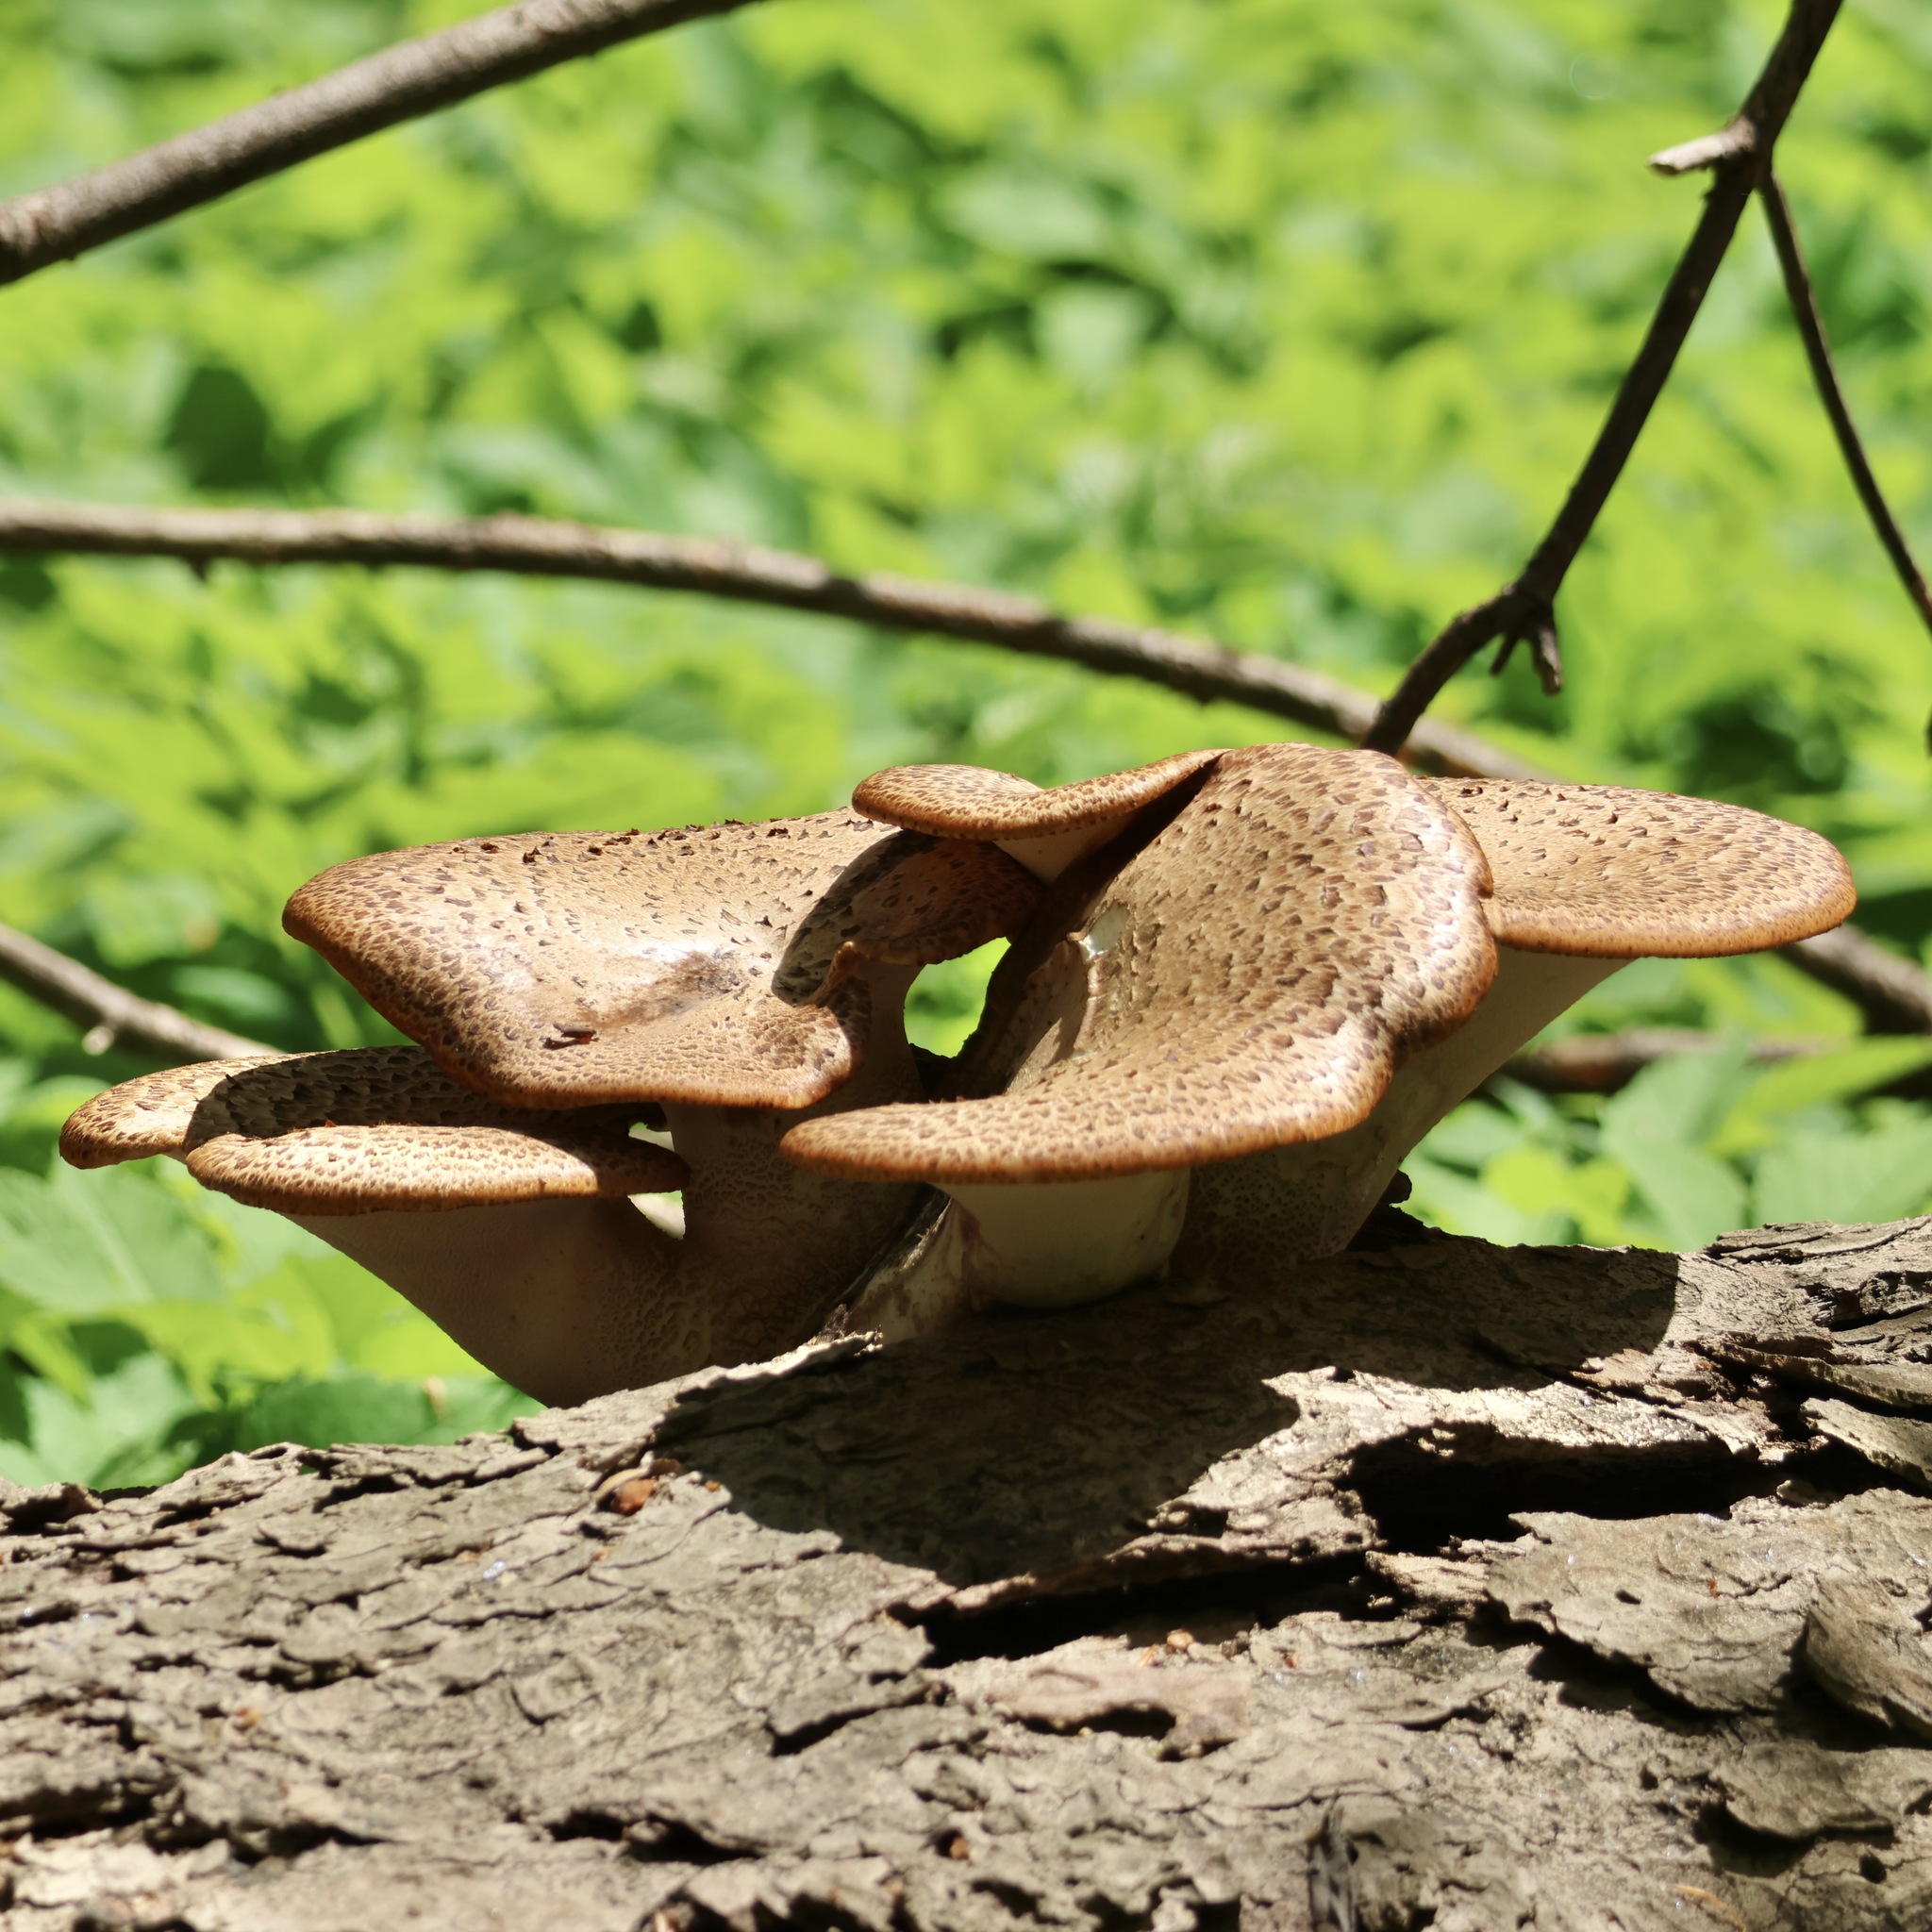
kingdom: Fungi
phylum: Basidiomycota
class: Agaricomycetes
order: Polyporales
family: Polyporaceae
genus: Cerioporus
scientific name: Cerioporus squamosus
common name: Dryad's saddle
